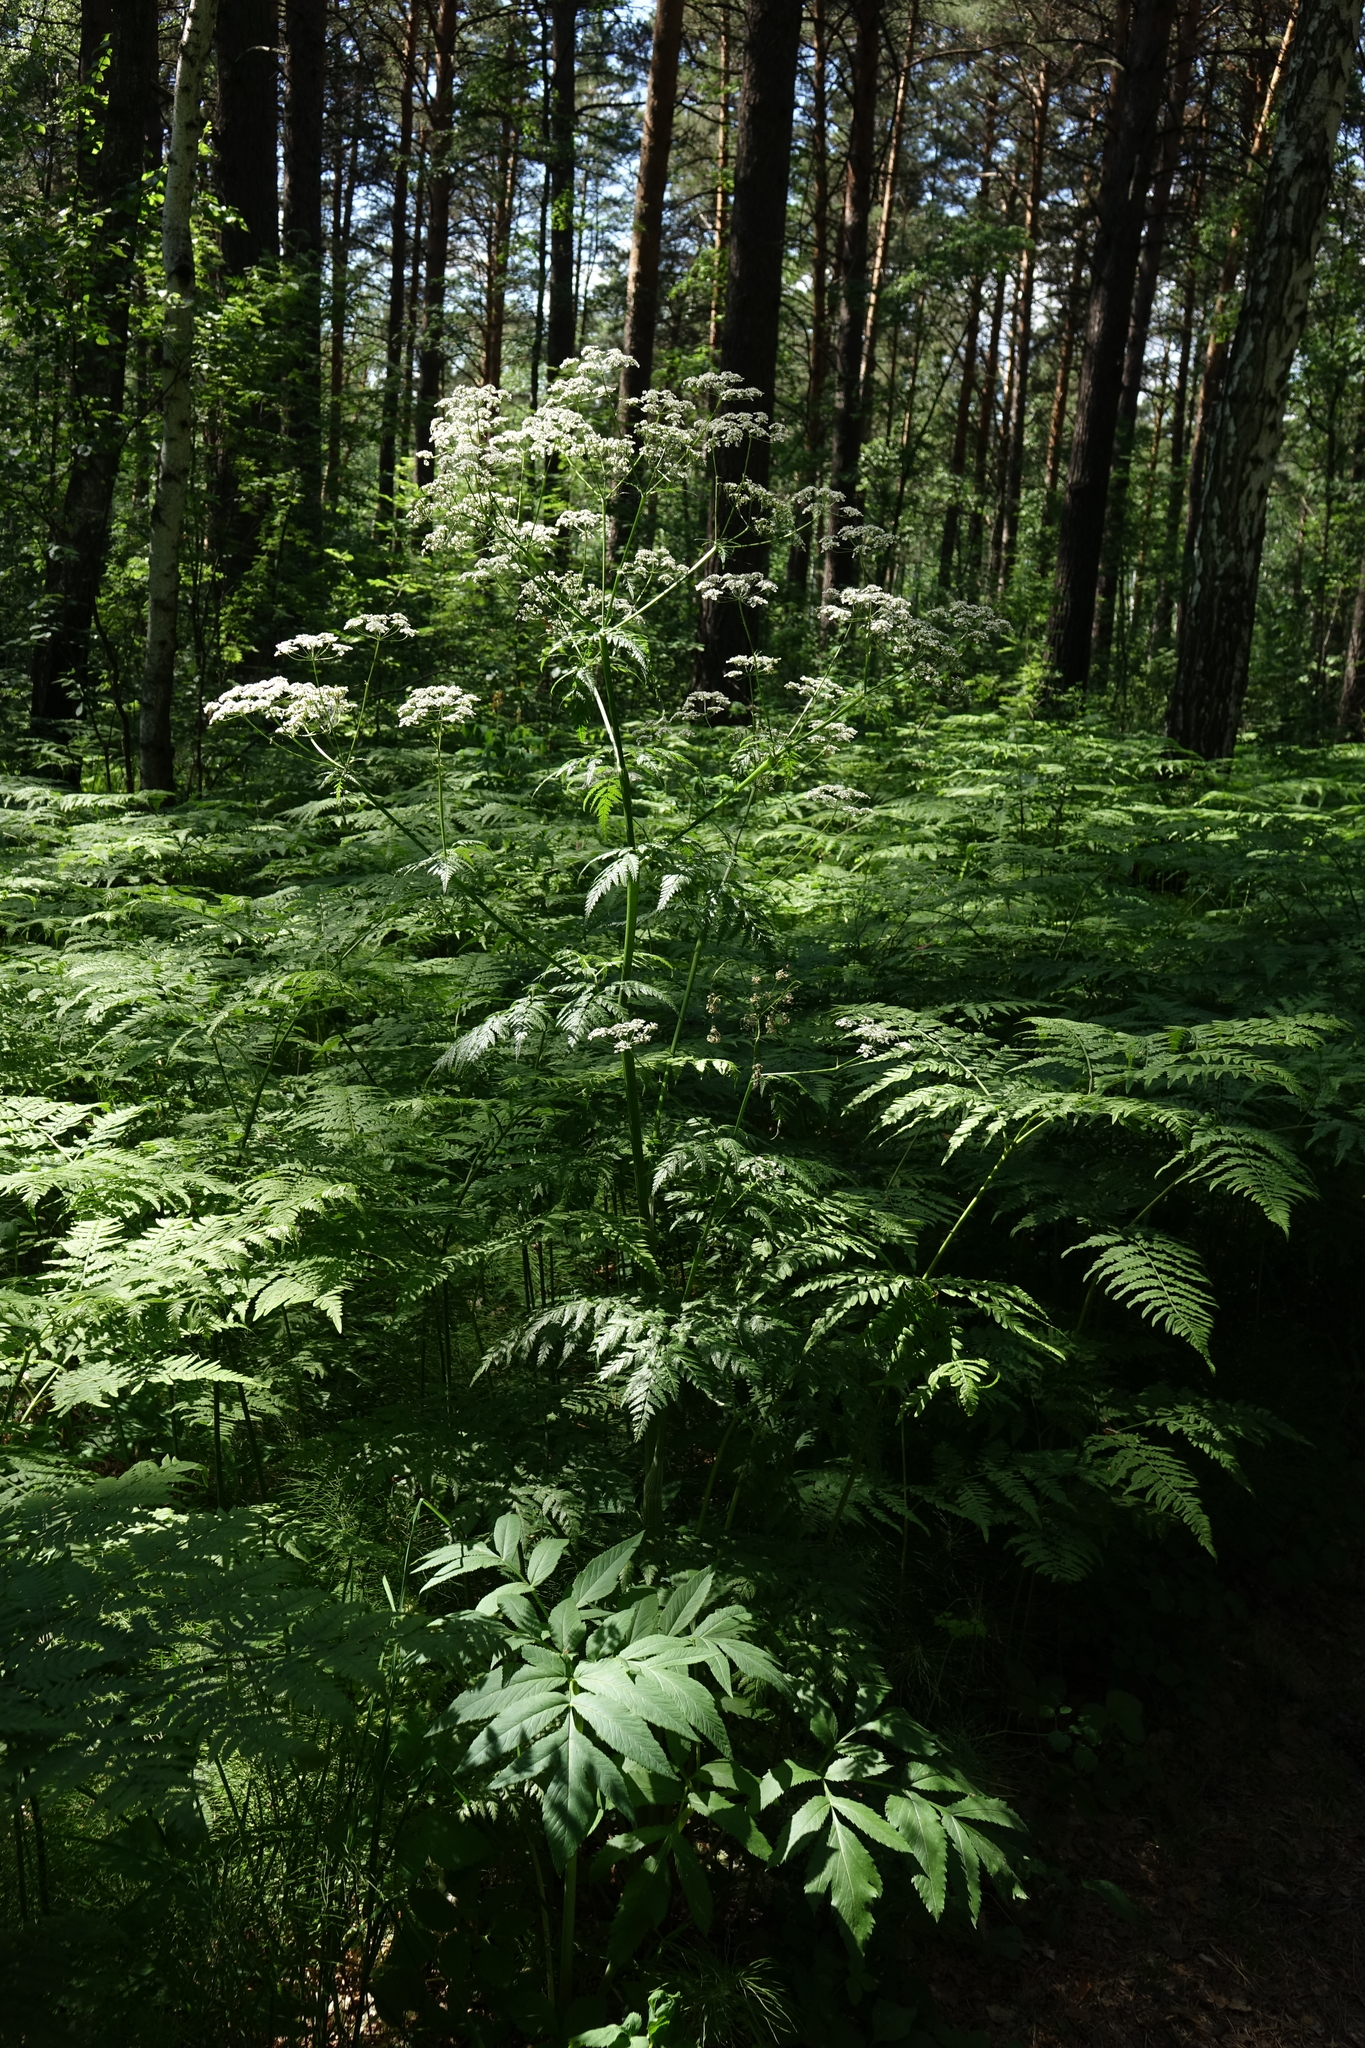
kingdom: Plantae
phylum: Tracheophyta
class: Magnoliopsida
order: Apiales
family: Apiaceae
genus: Conioselinum
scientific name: Conioselinum tataricum
